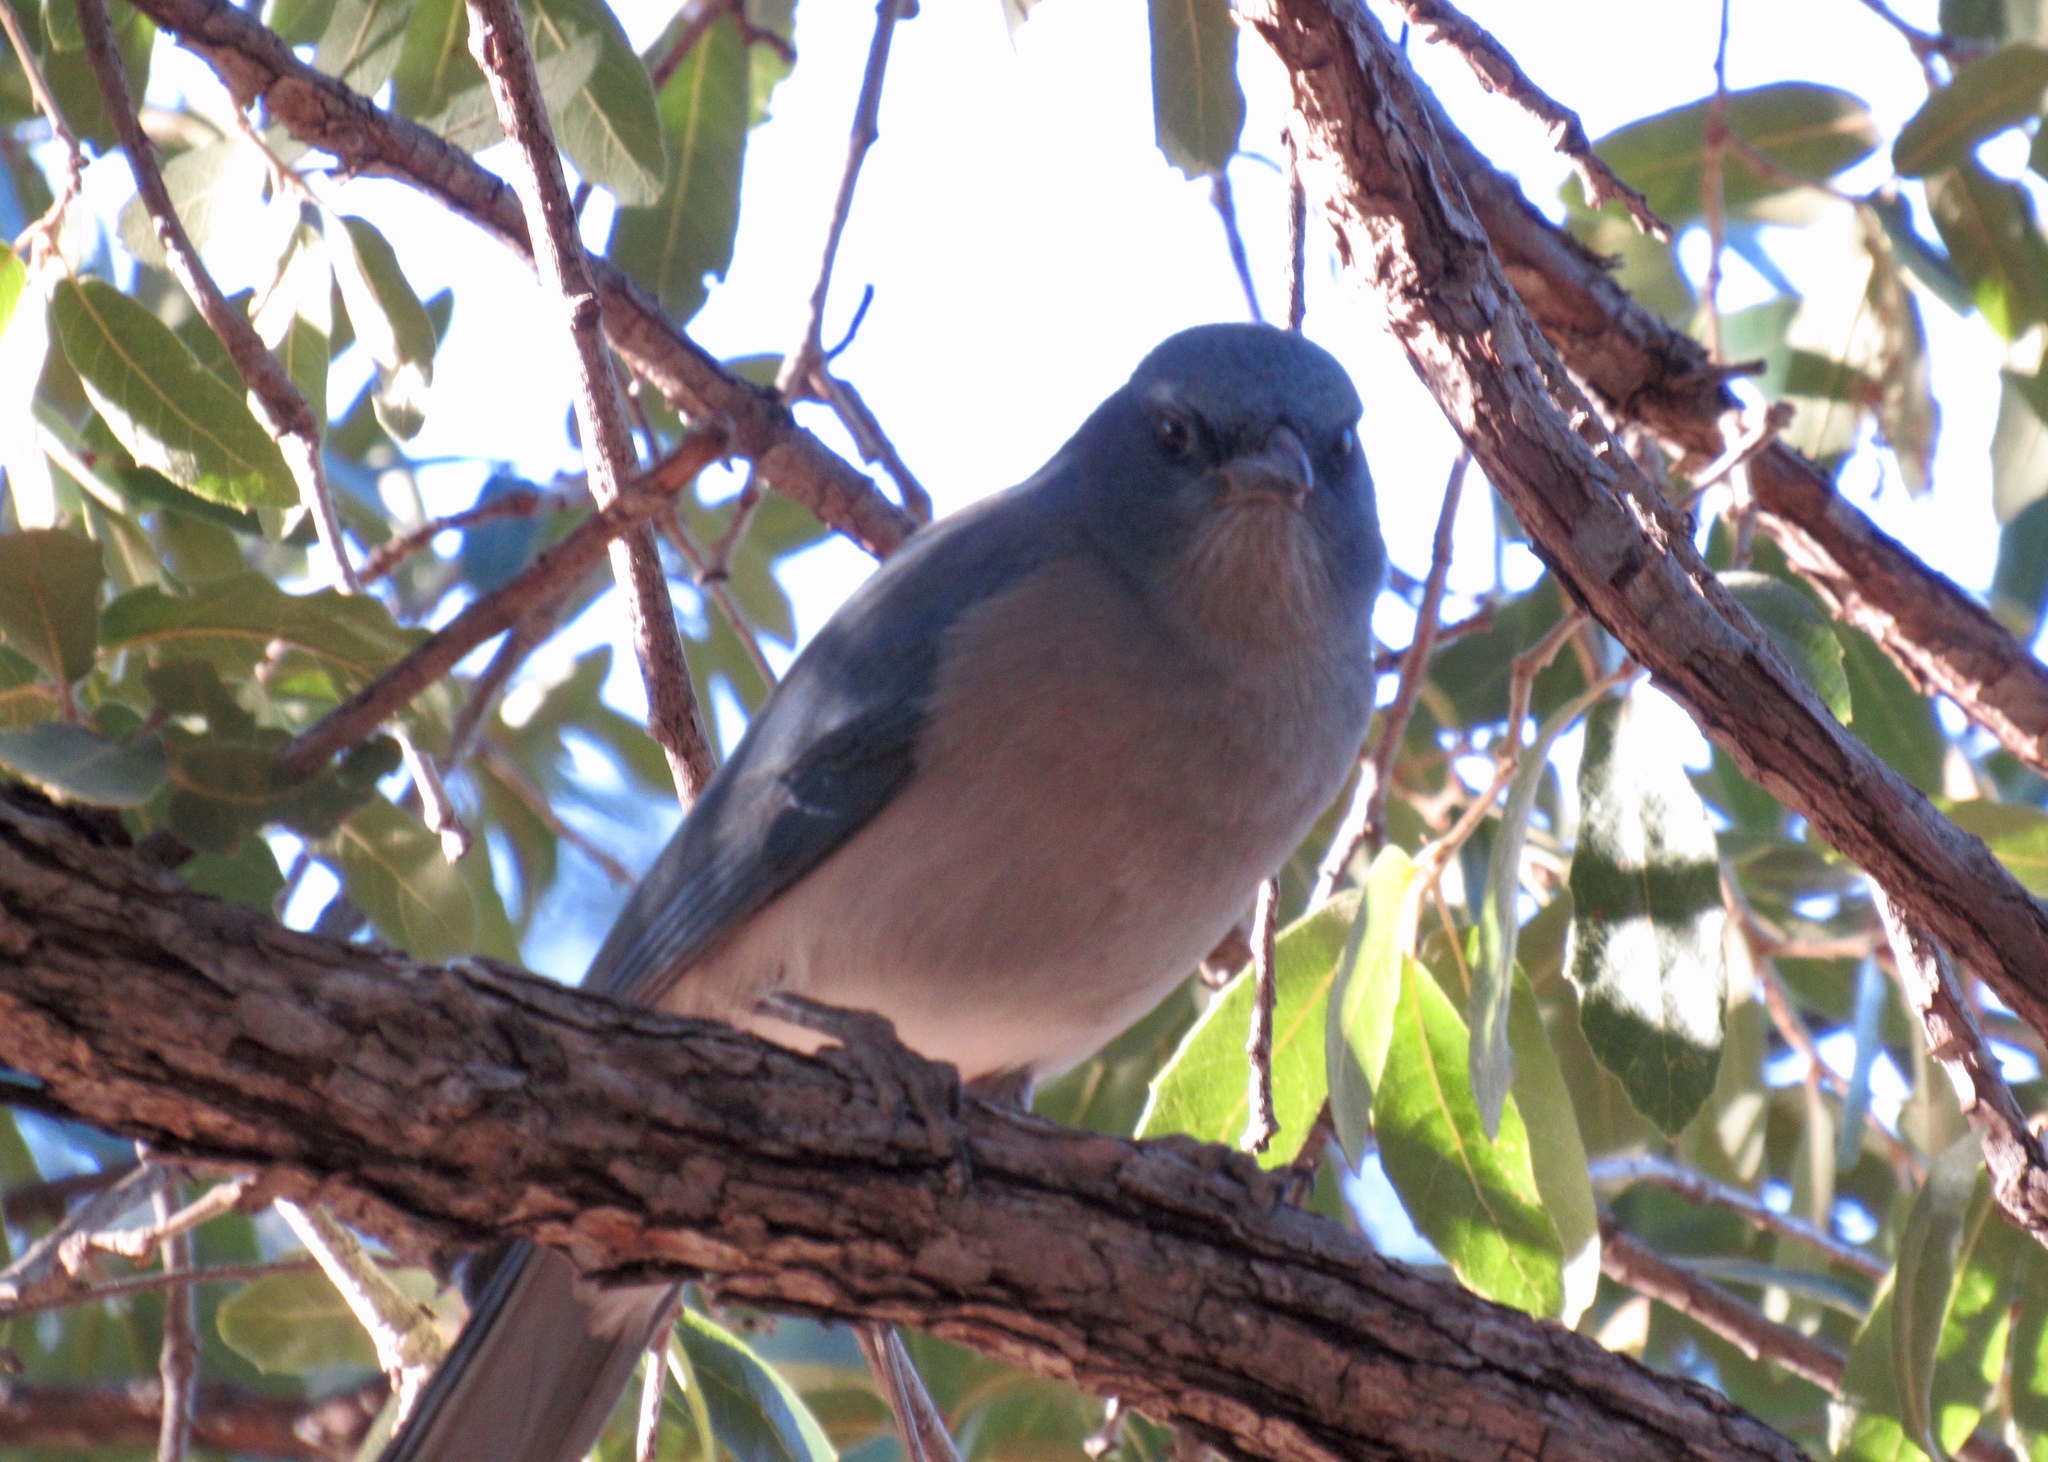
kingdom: Animalia
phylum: Chordata
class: Aves
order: Passeriformes
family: Corvidae
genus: Aphelocoma
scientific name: Aphelocoma wollweberi
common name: Mexican jay
